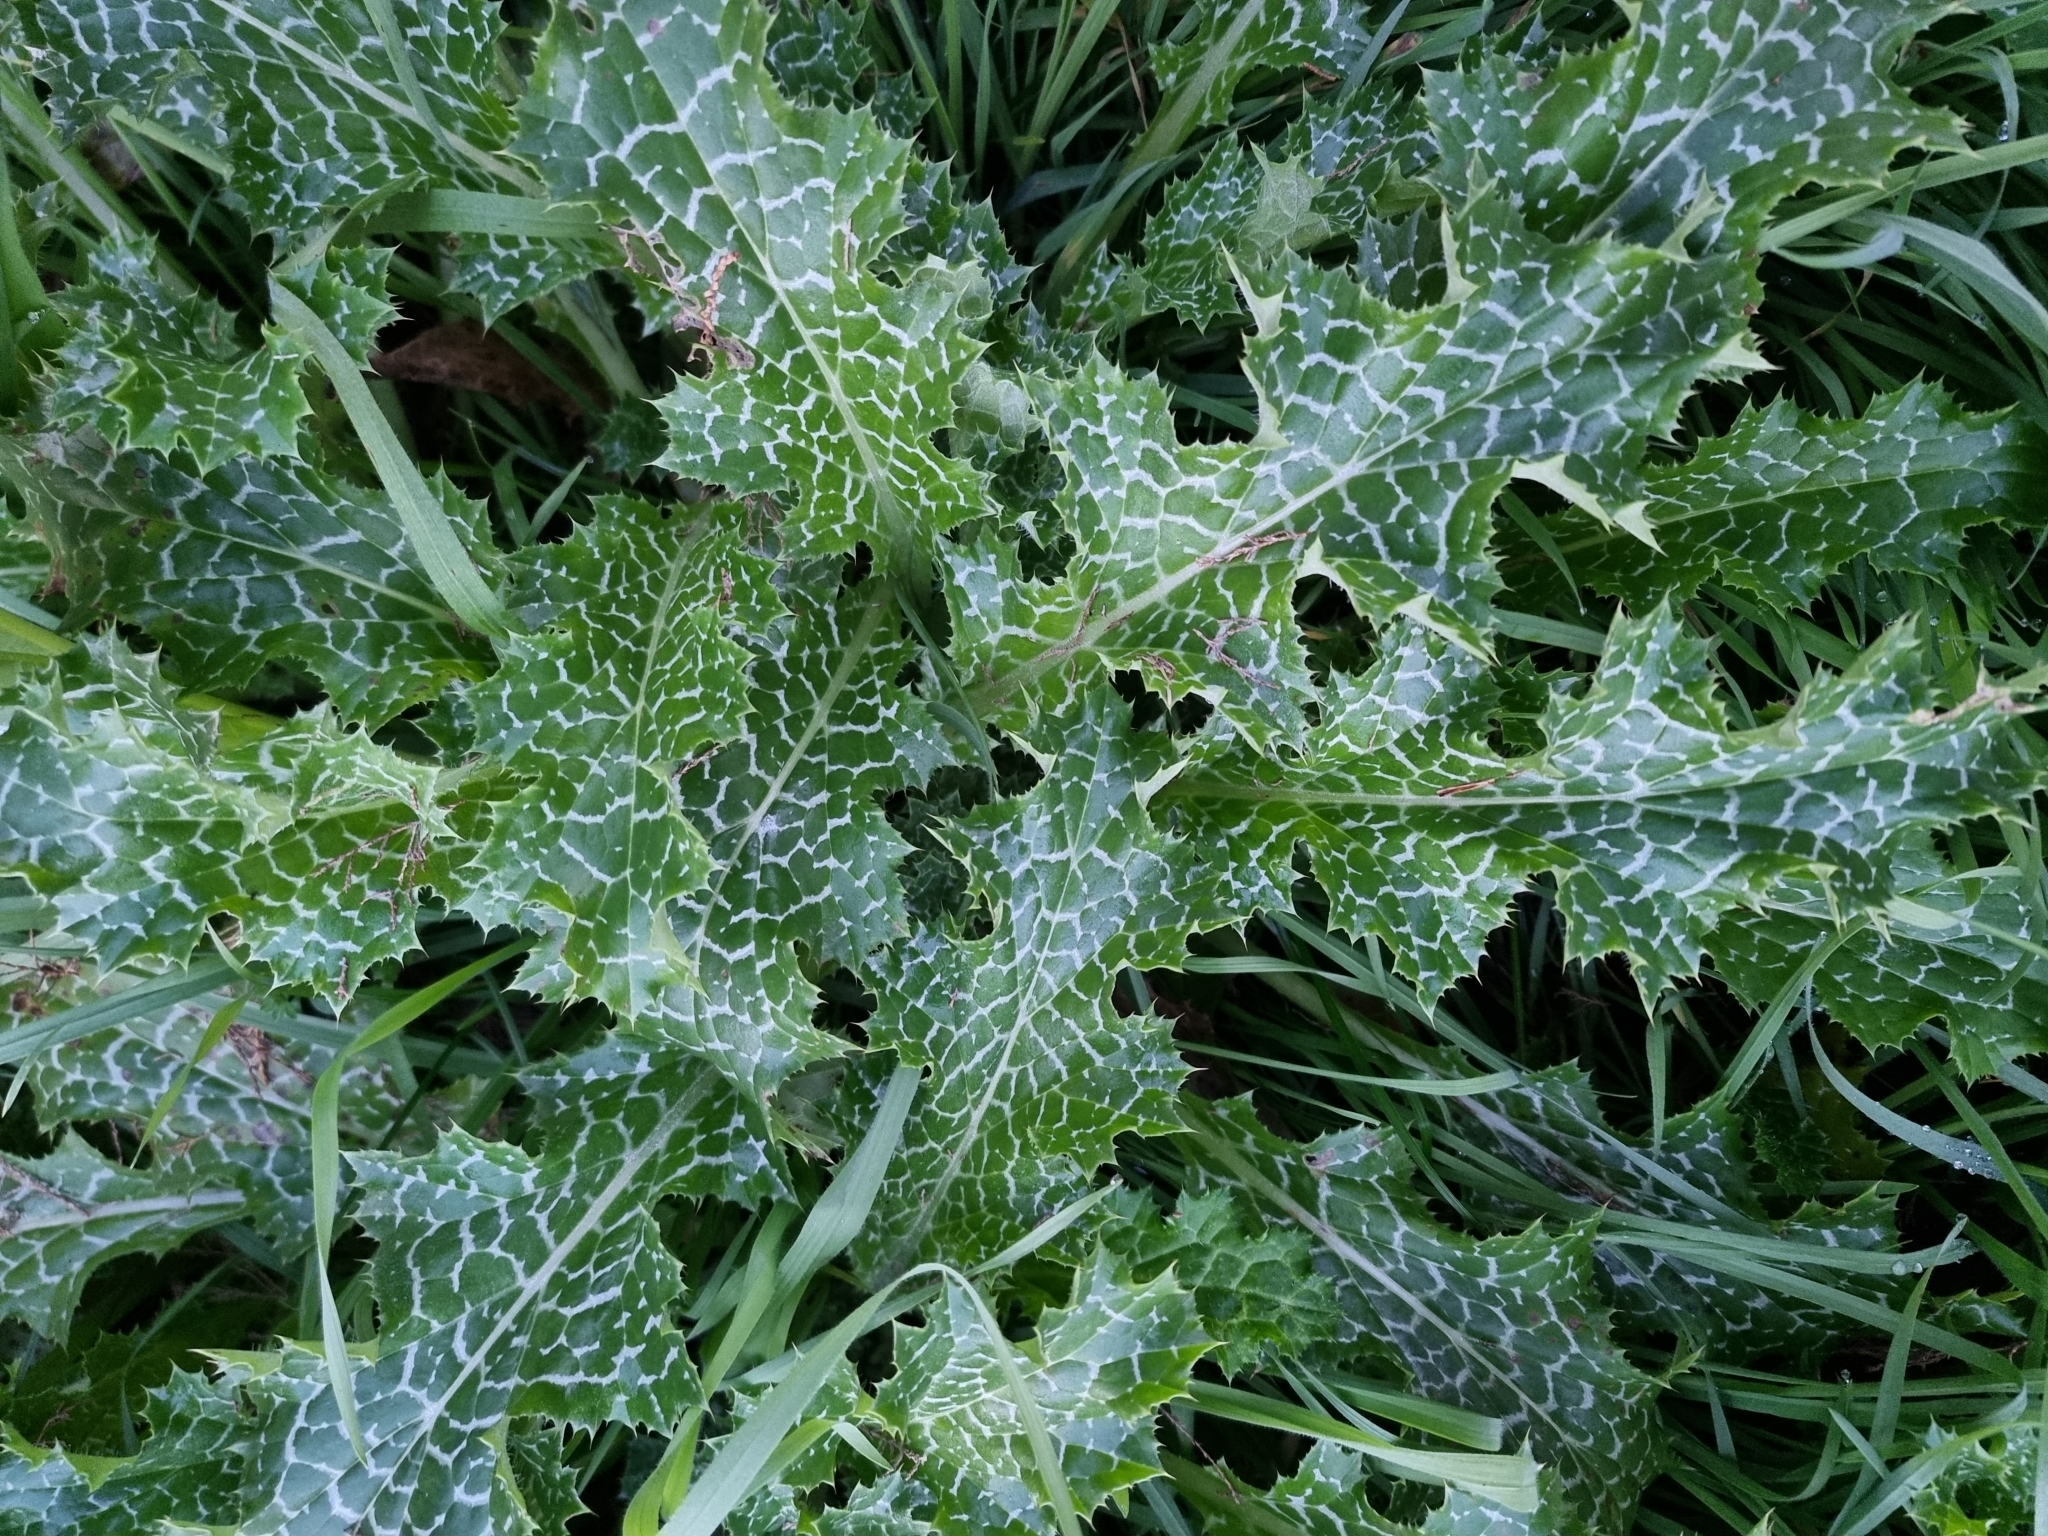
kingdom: Plantae
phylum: Tracheophyta
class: Magnoliopsida
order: Asterales
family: Asteraceae
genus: Silybum
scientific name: Silybum marianum
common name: Milk thistle
